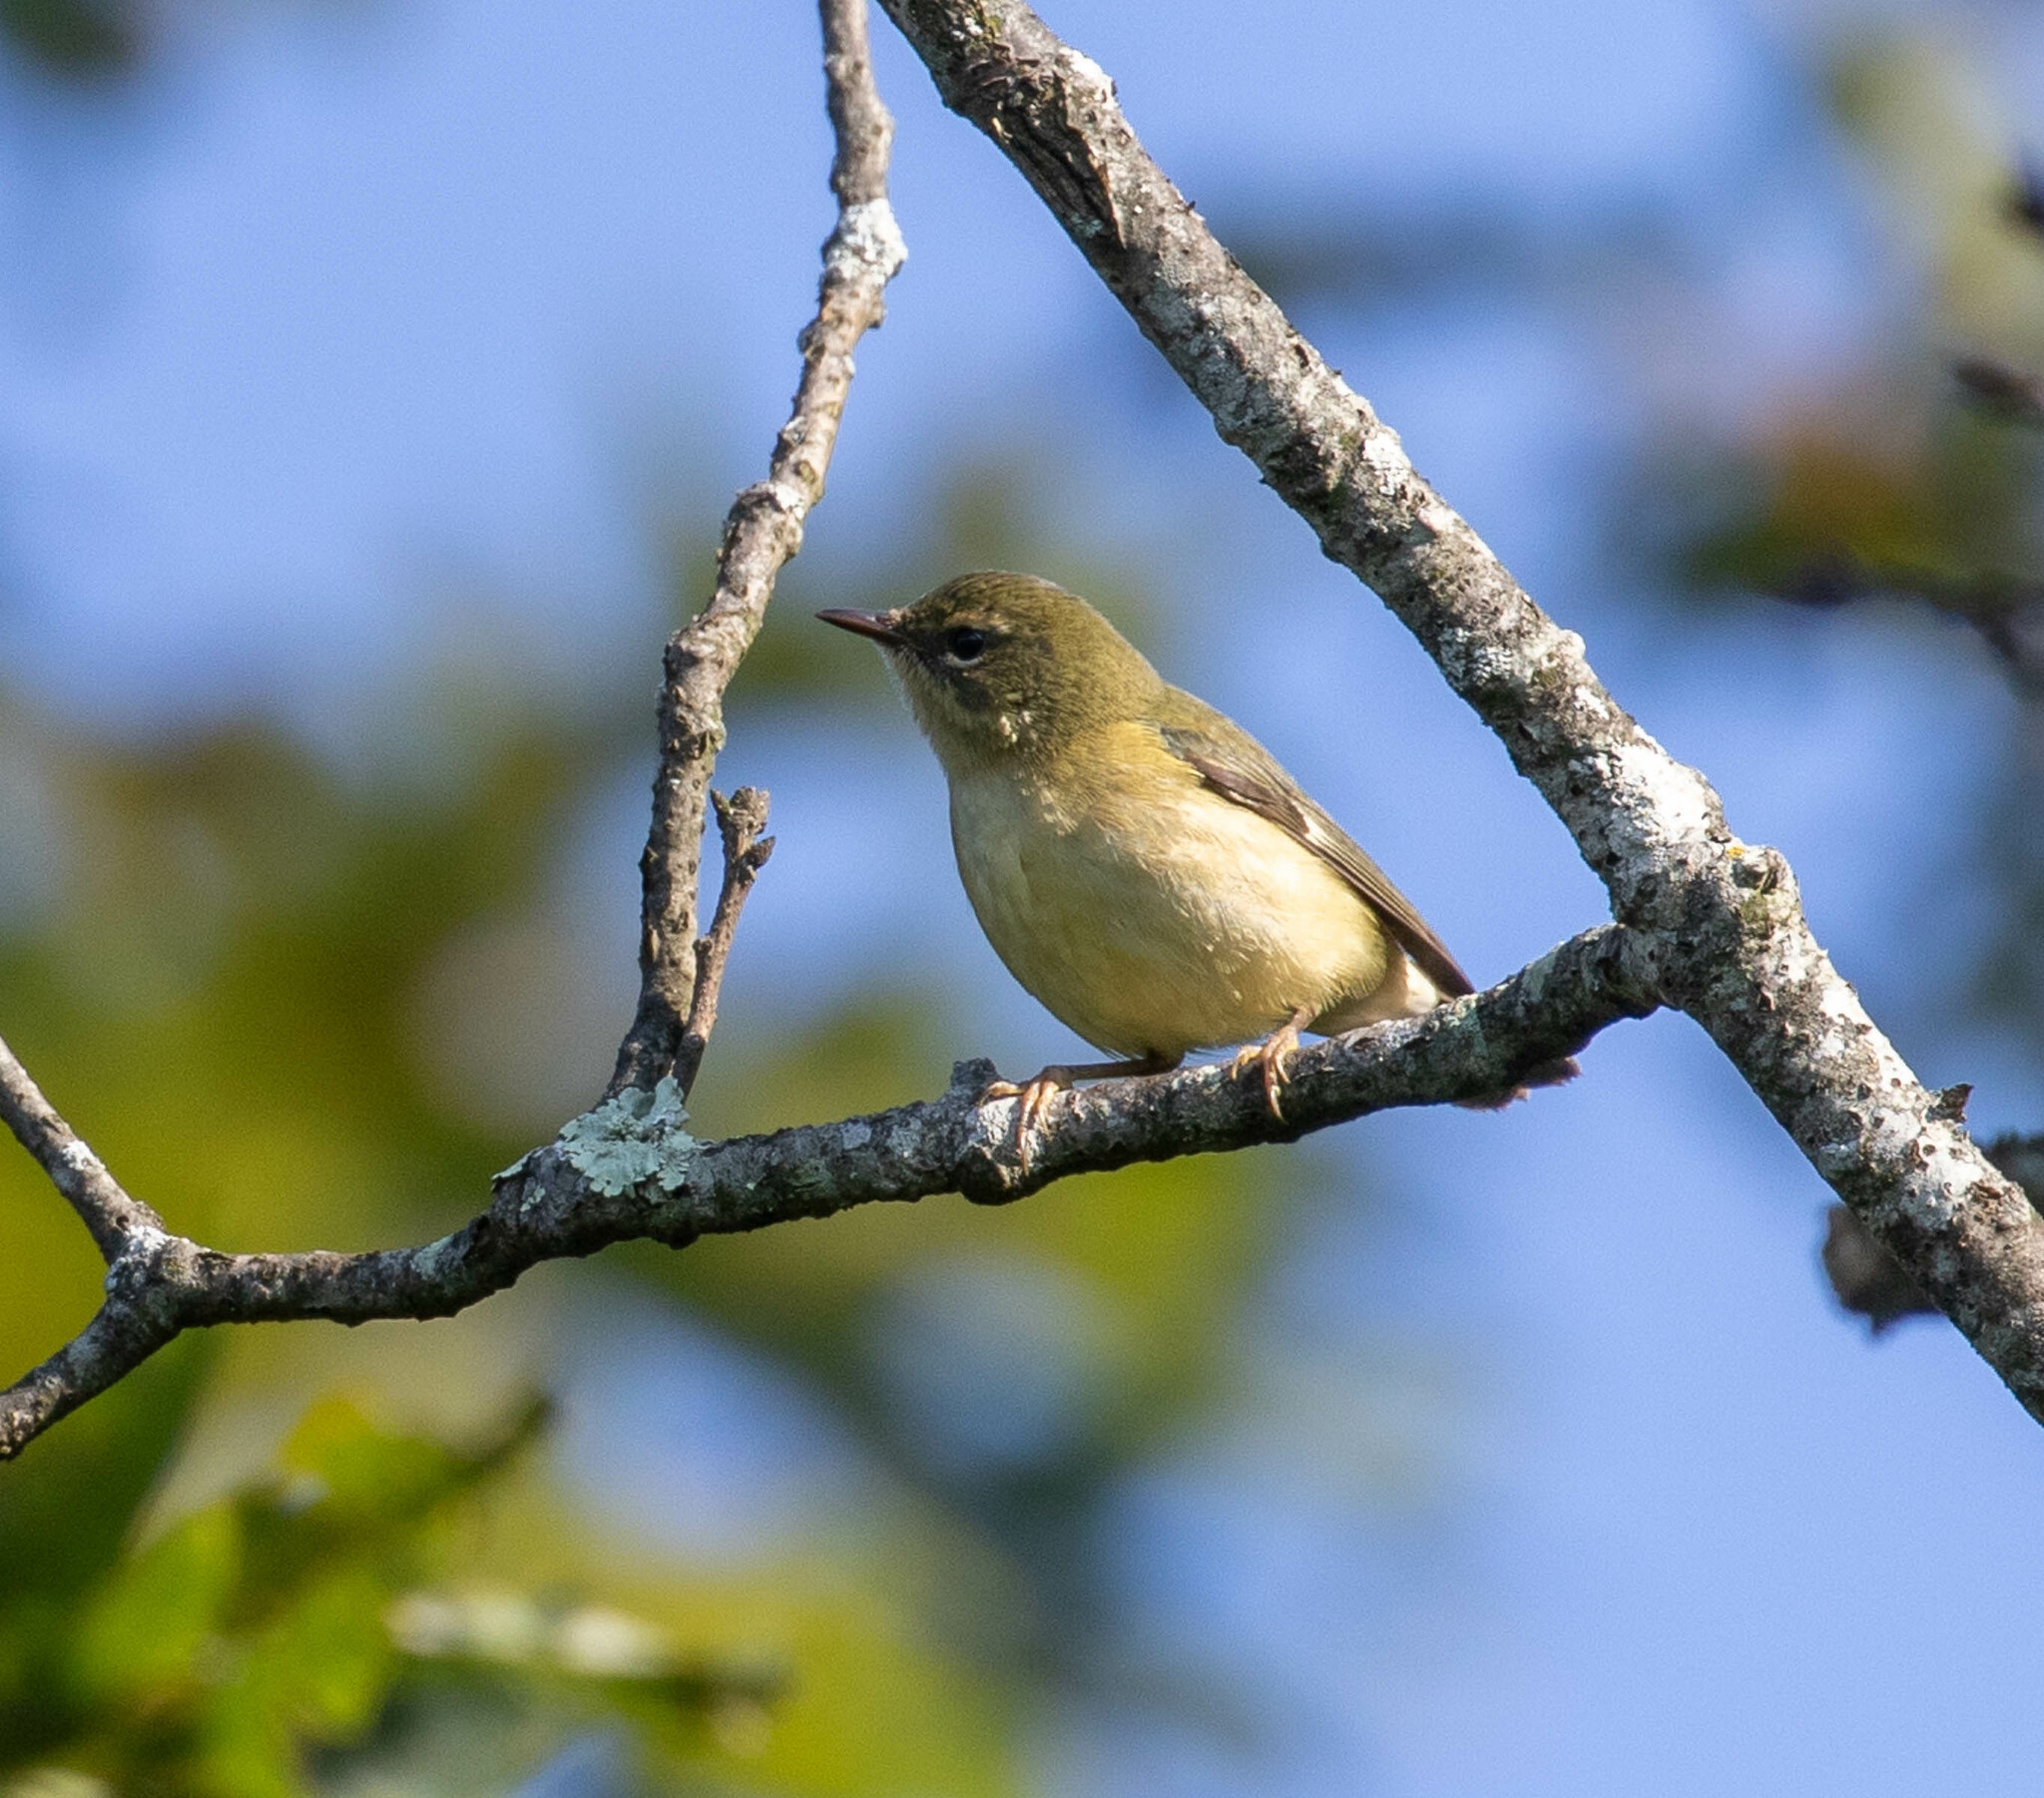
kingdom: Animalia
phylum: Chordata
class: Aves
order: Passeriformes
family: Parulidae
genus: Setophaga
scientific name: Setophaga caerulescens
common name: Black-throated blue warbler
